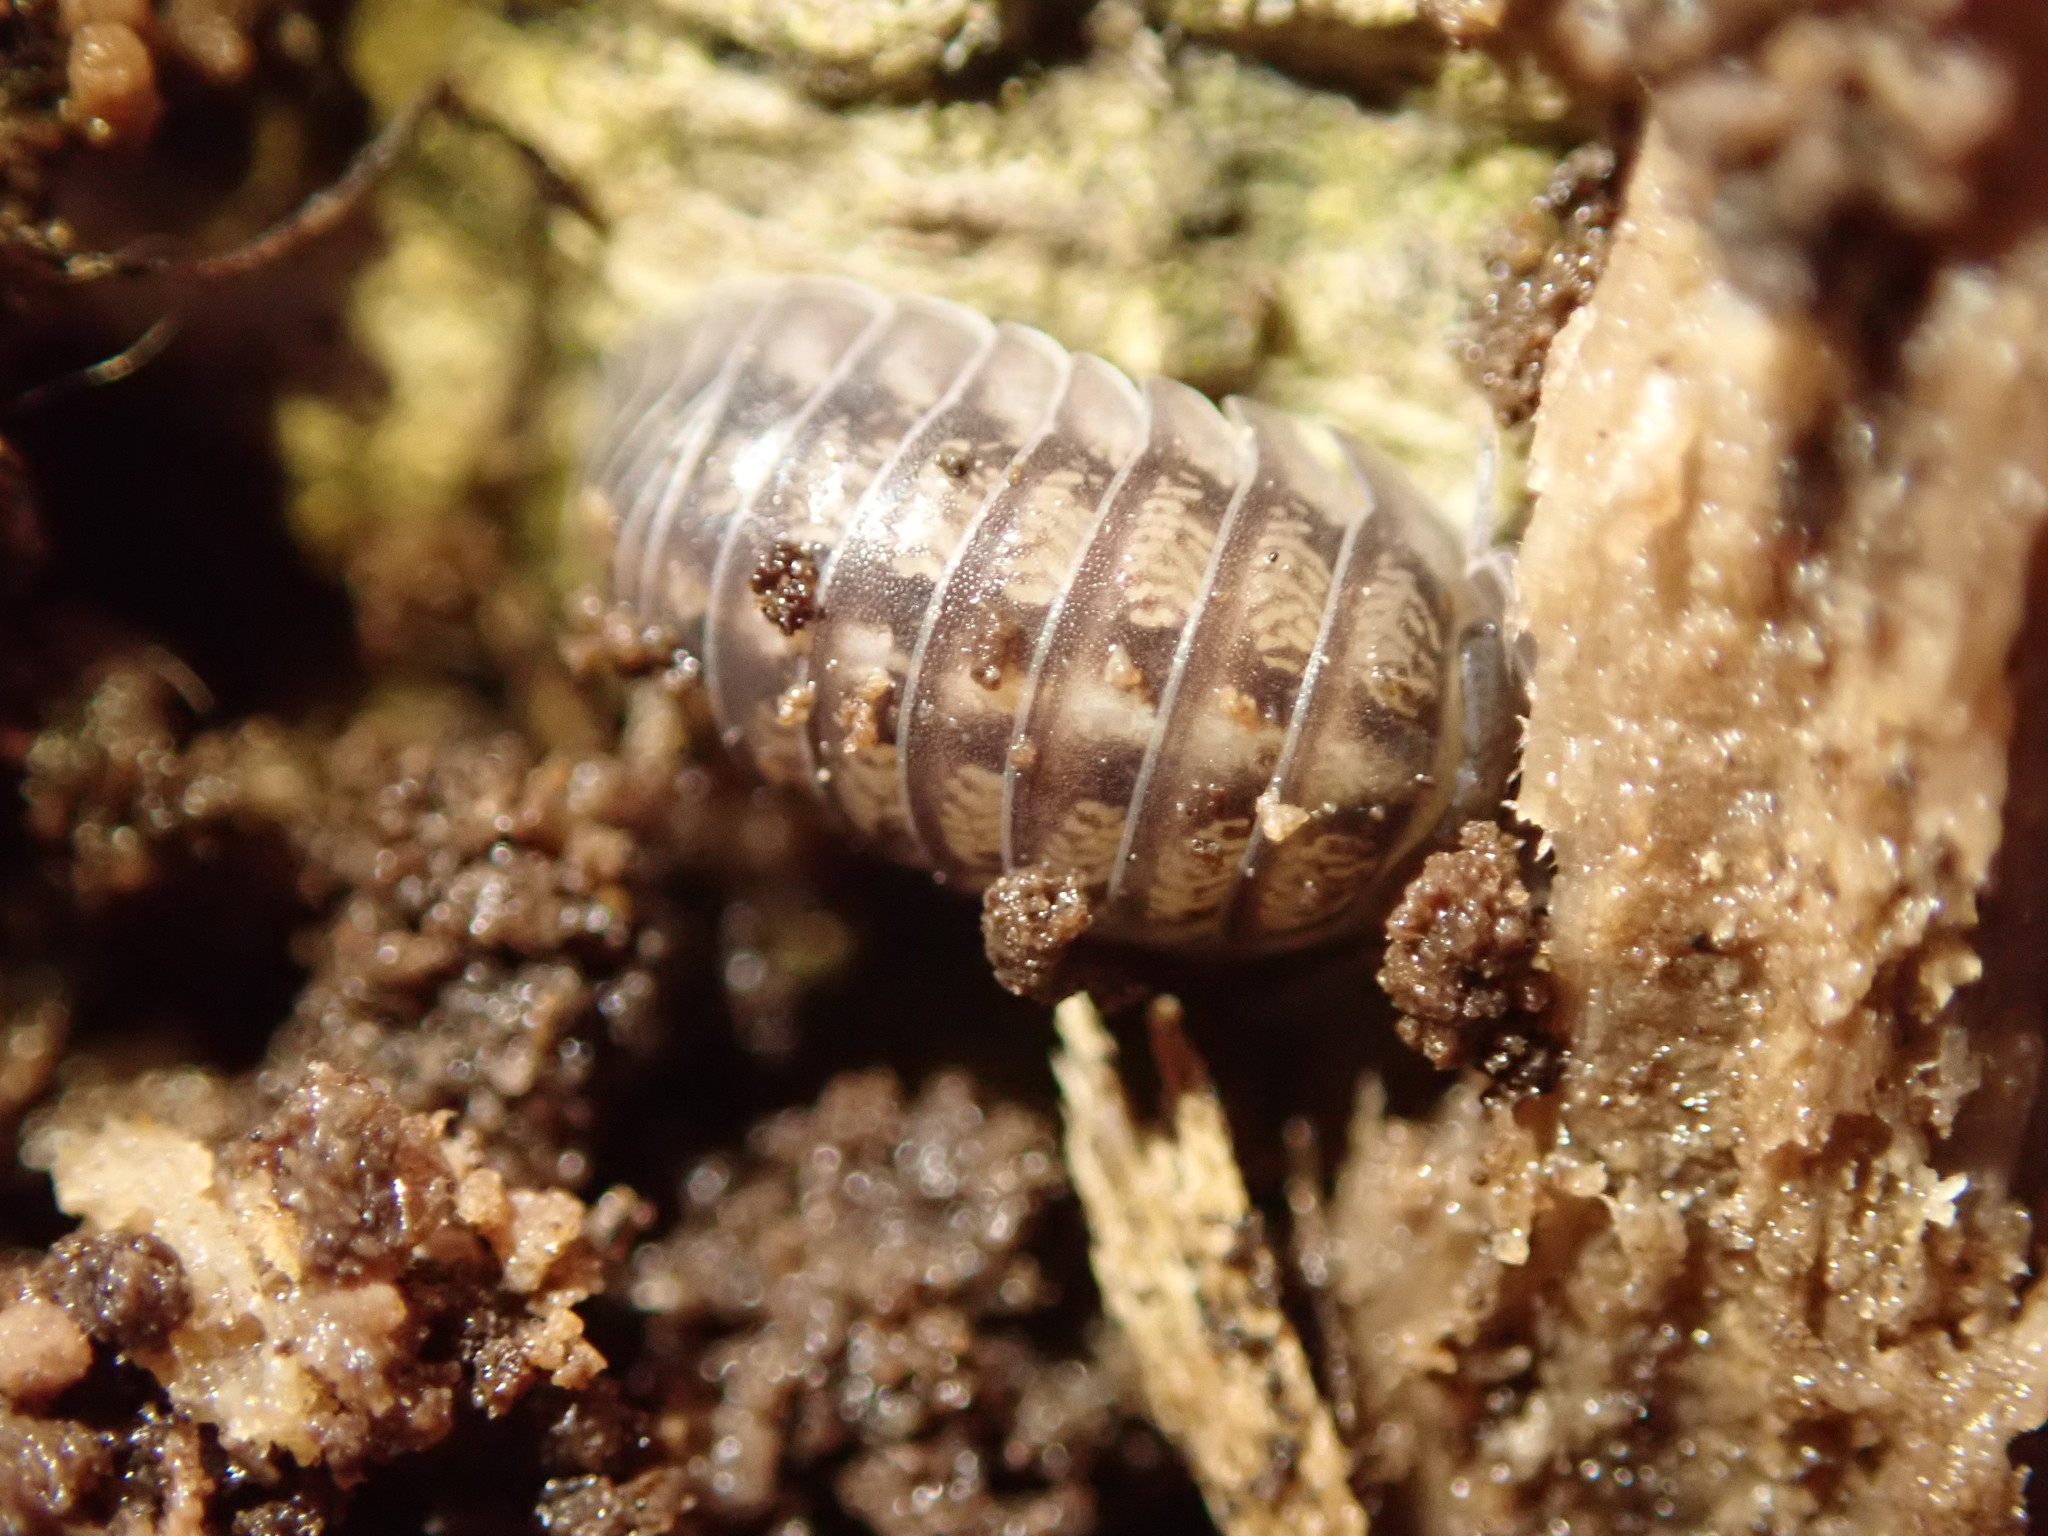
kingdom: Animalia
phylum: Arthropoda
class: Malacostraca
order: Isopoda
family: Armadillidiidae
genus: Armadillidium
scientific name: Armadillidium nasatum
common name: Isopod
